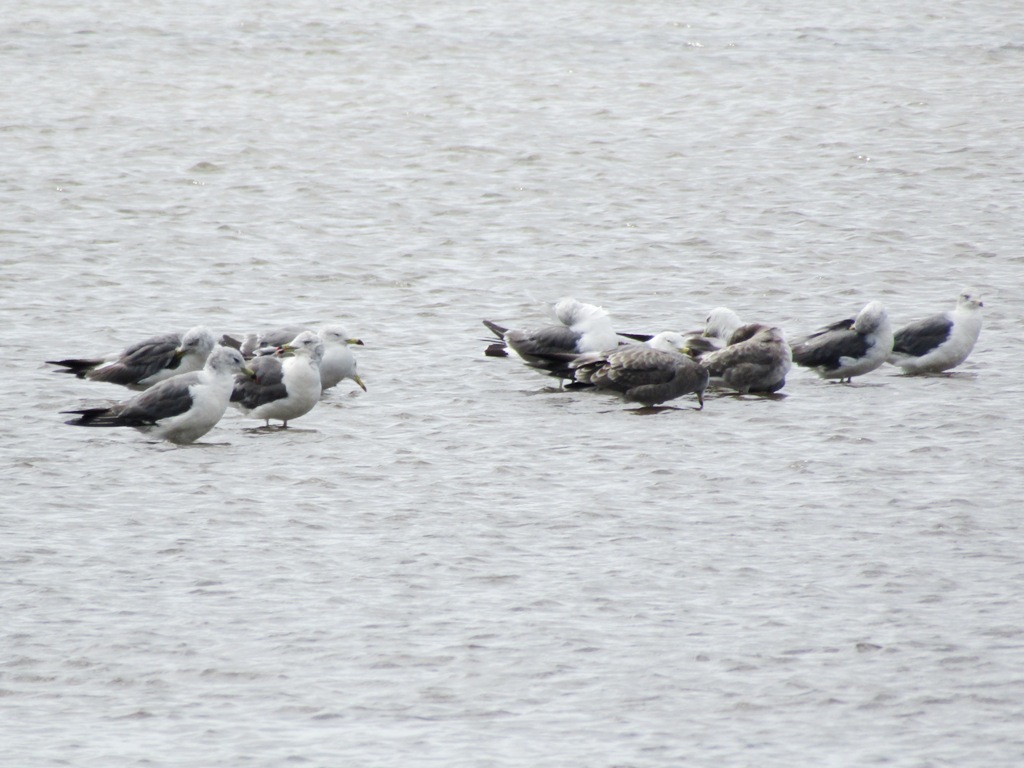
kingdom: Animalia
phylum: Chordata
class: Aves
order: Charadriiformes
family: Laridae
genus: Larus
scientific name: Larus crassirostris
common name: Black-tailed gull
